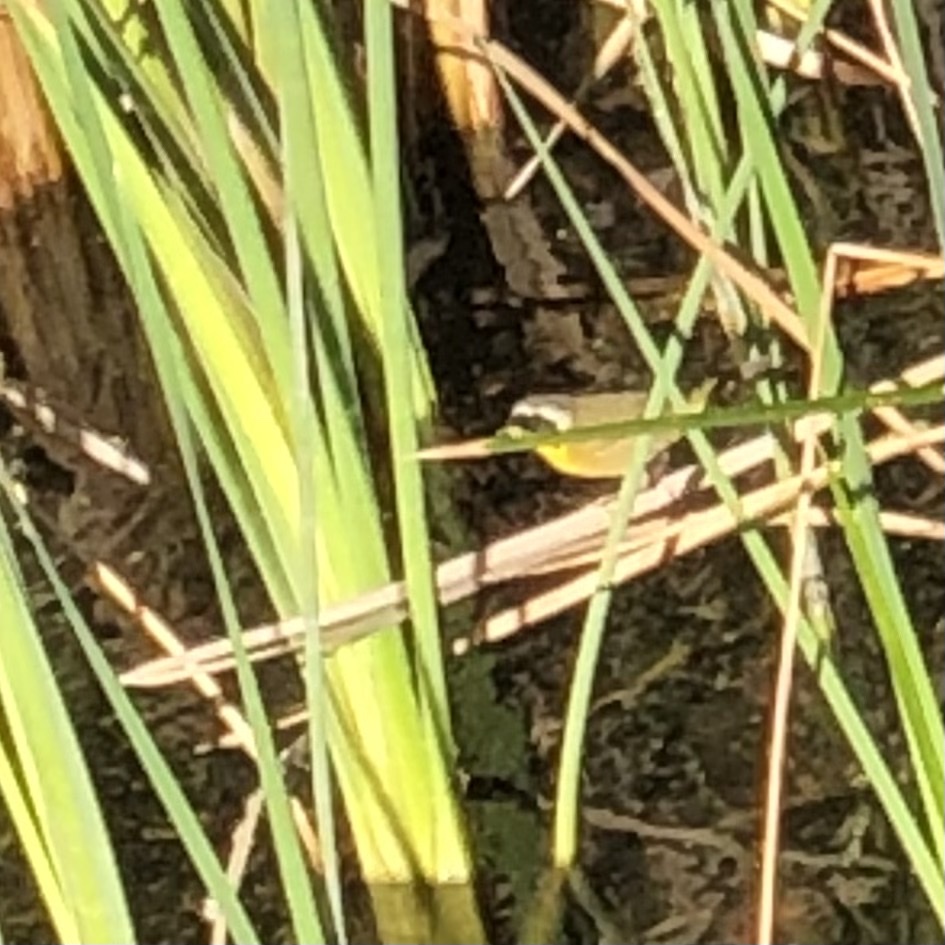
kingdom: Animalia
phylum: Chordata
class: Aves
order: Passeriformes
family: Parulidae
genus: Geothlypis
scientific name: Geothlypis trichas
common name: Common yellowthroat
